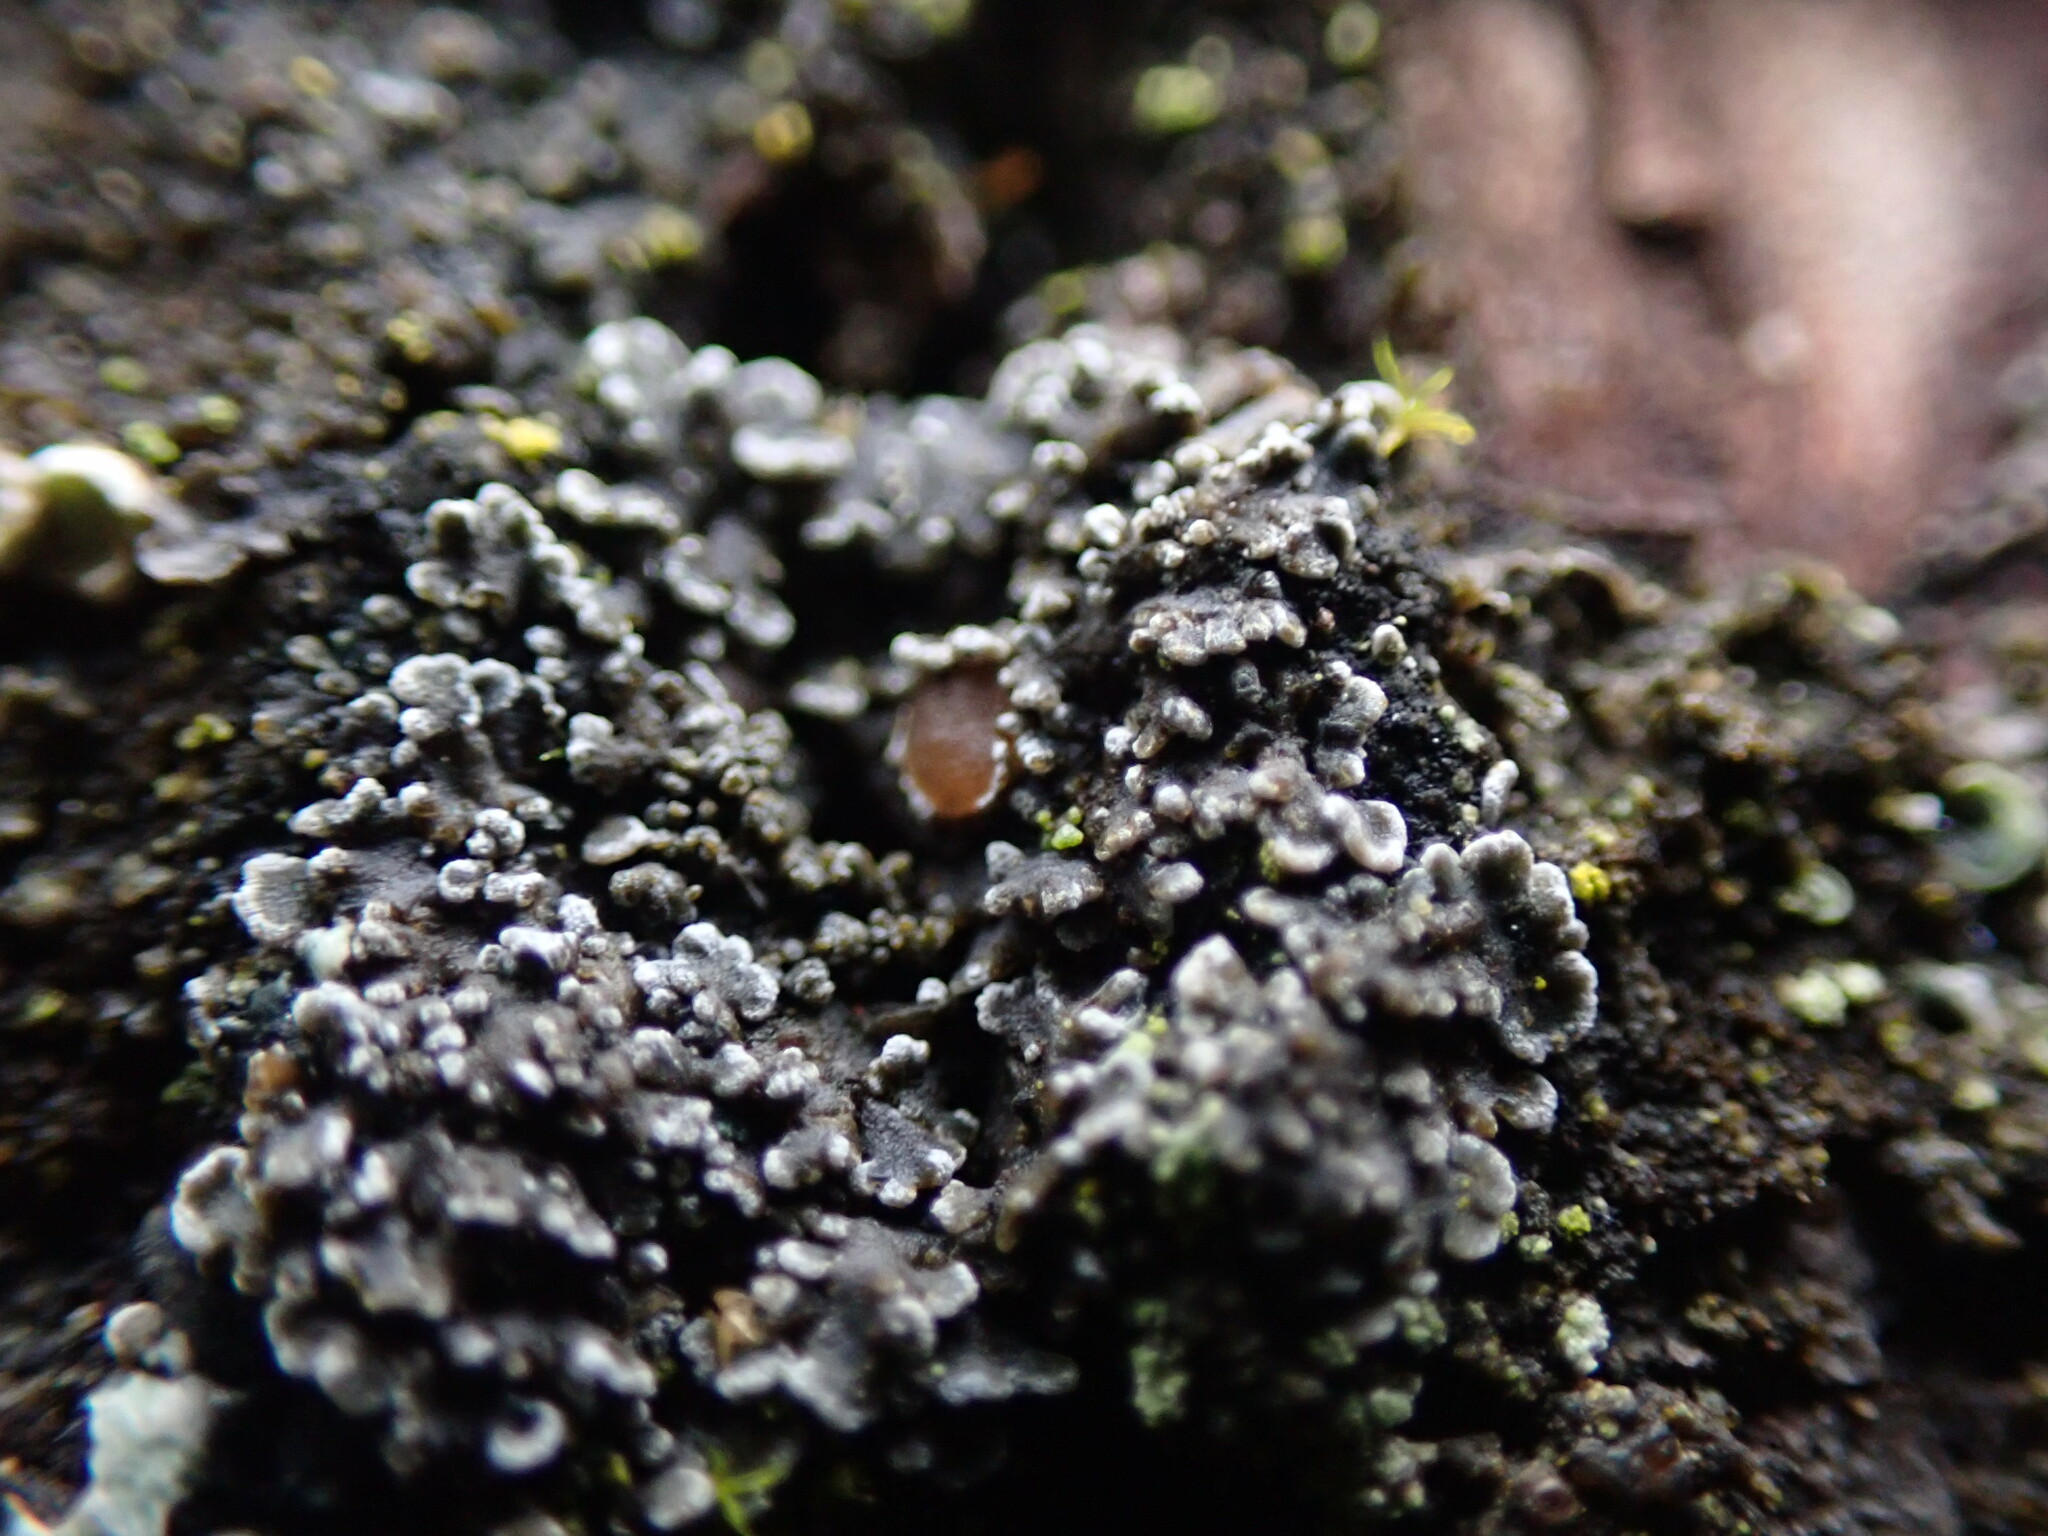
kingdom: Fungi
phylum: Ascomycota
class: Lecanoromycetes
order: Peltigerales
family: Pannariaceae
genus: Fuscopannaria
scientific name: Fuscopannaria leucostictoides
